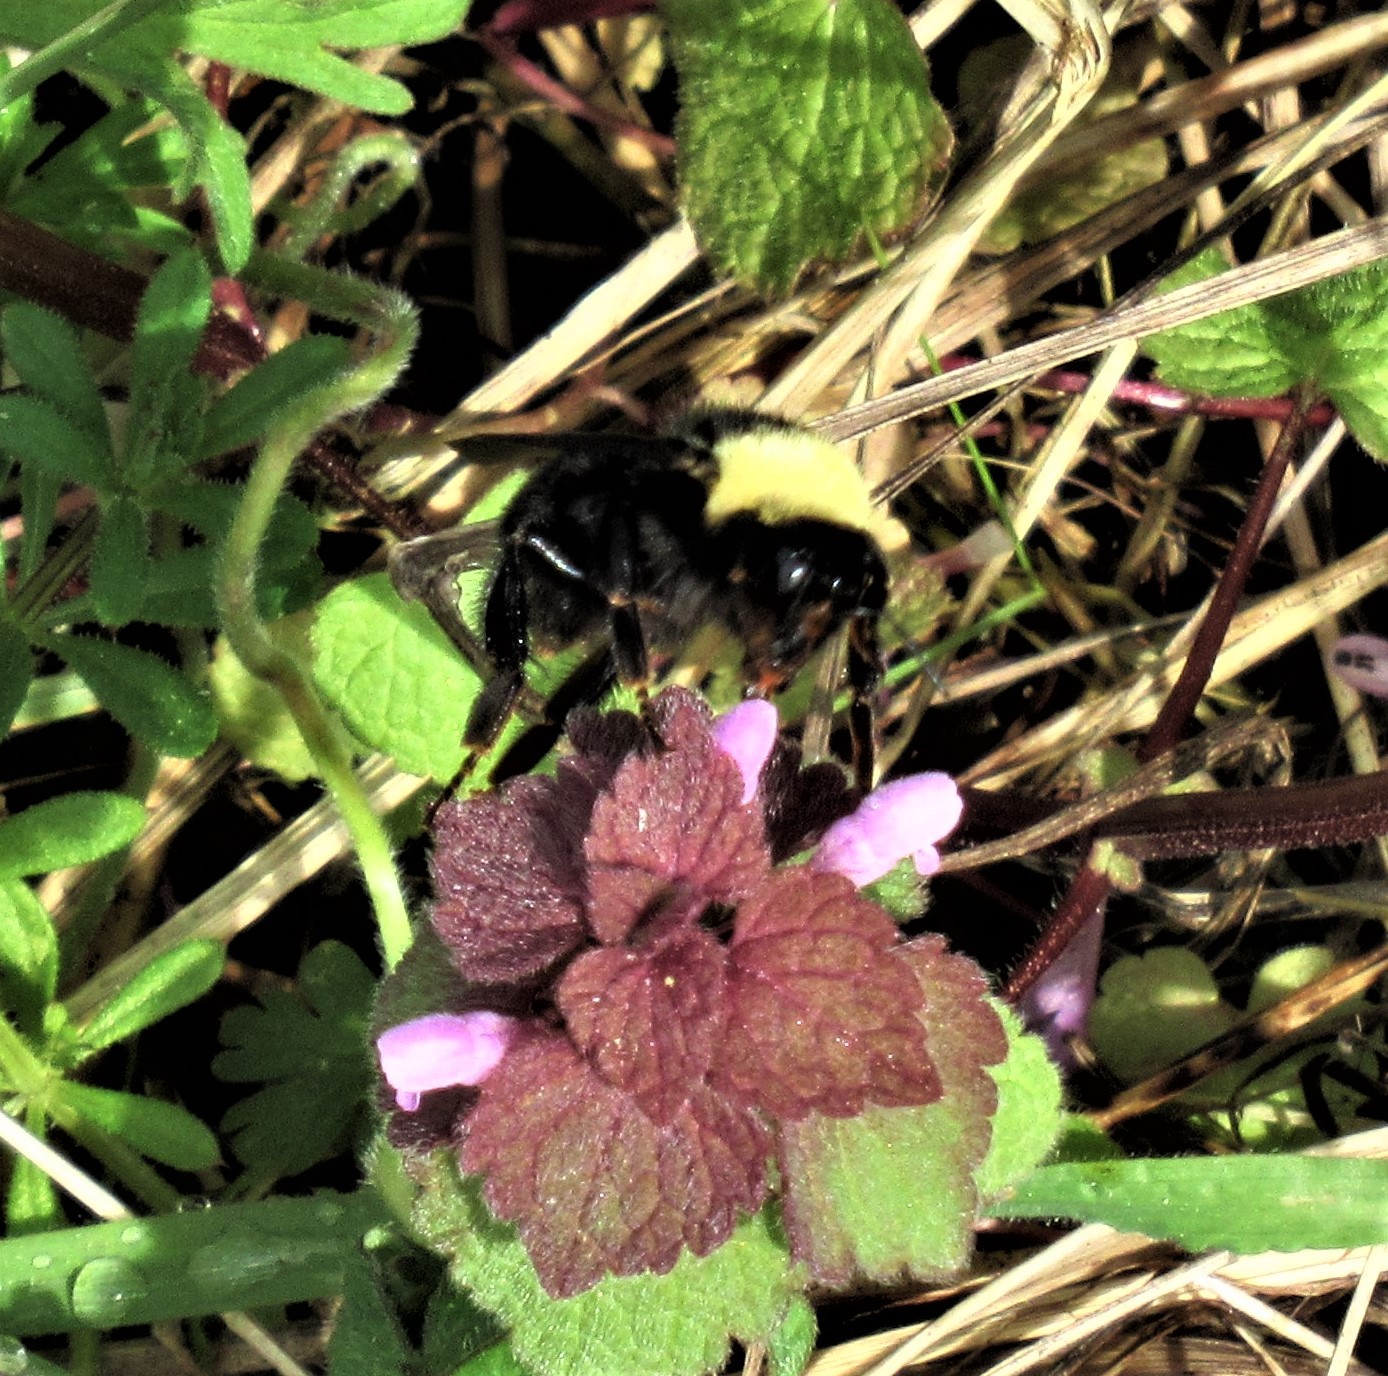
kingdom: Animalia
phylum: Arthropoda
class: Insecta
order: Hymenoptera
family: Apidae
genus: Bombus
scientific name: Bombus californicus
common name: California bumble bee
